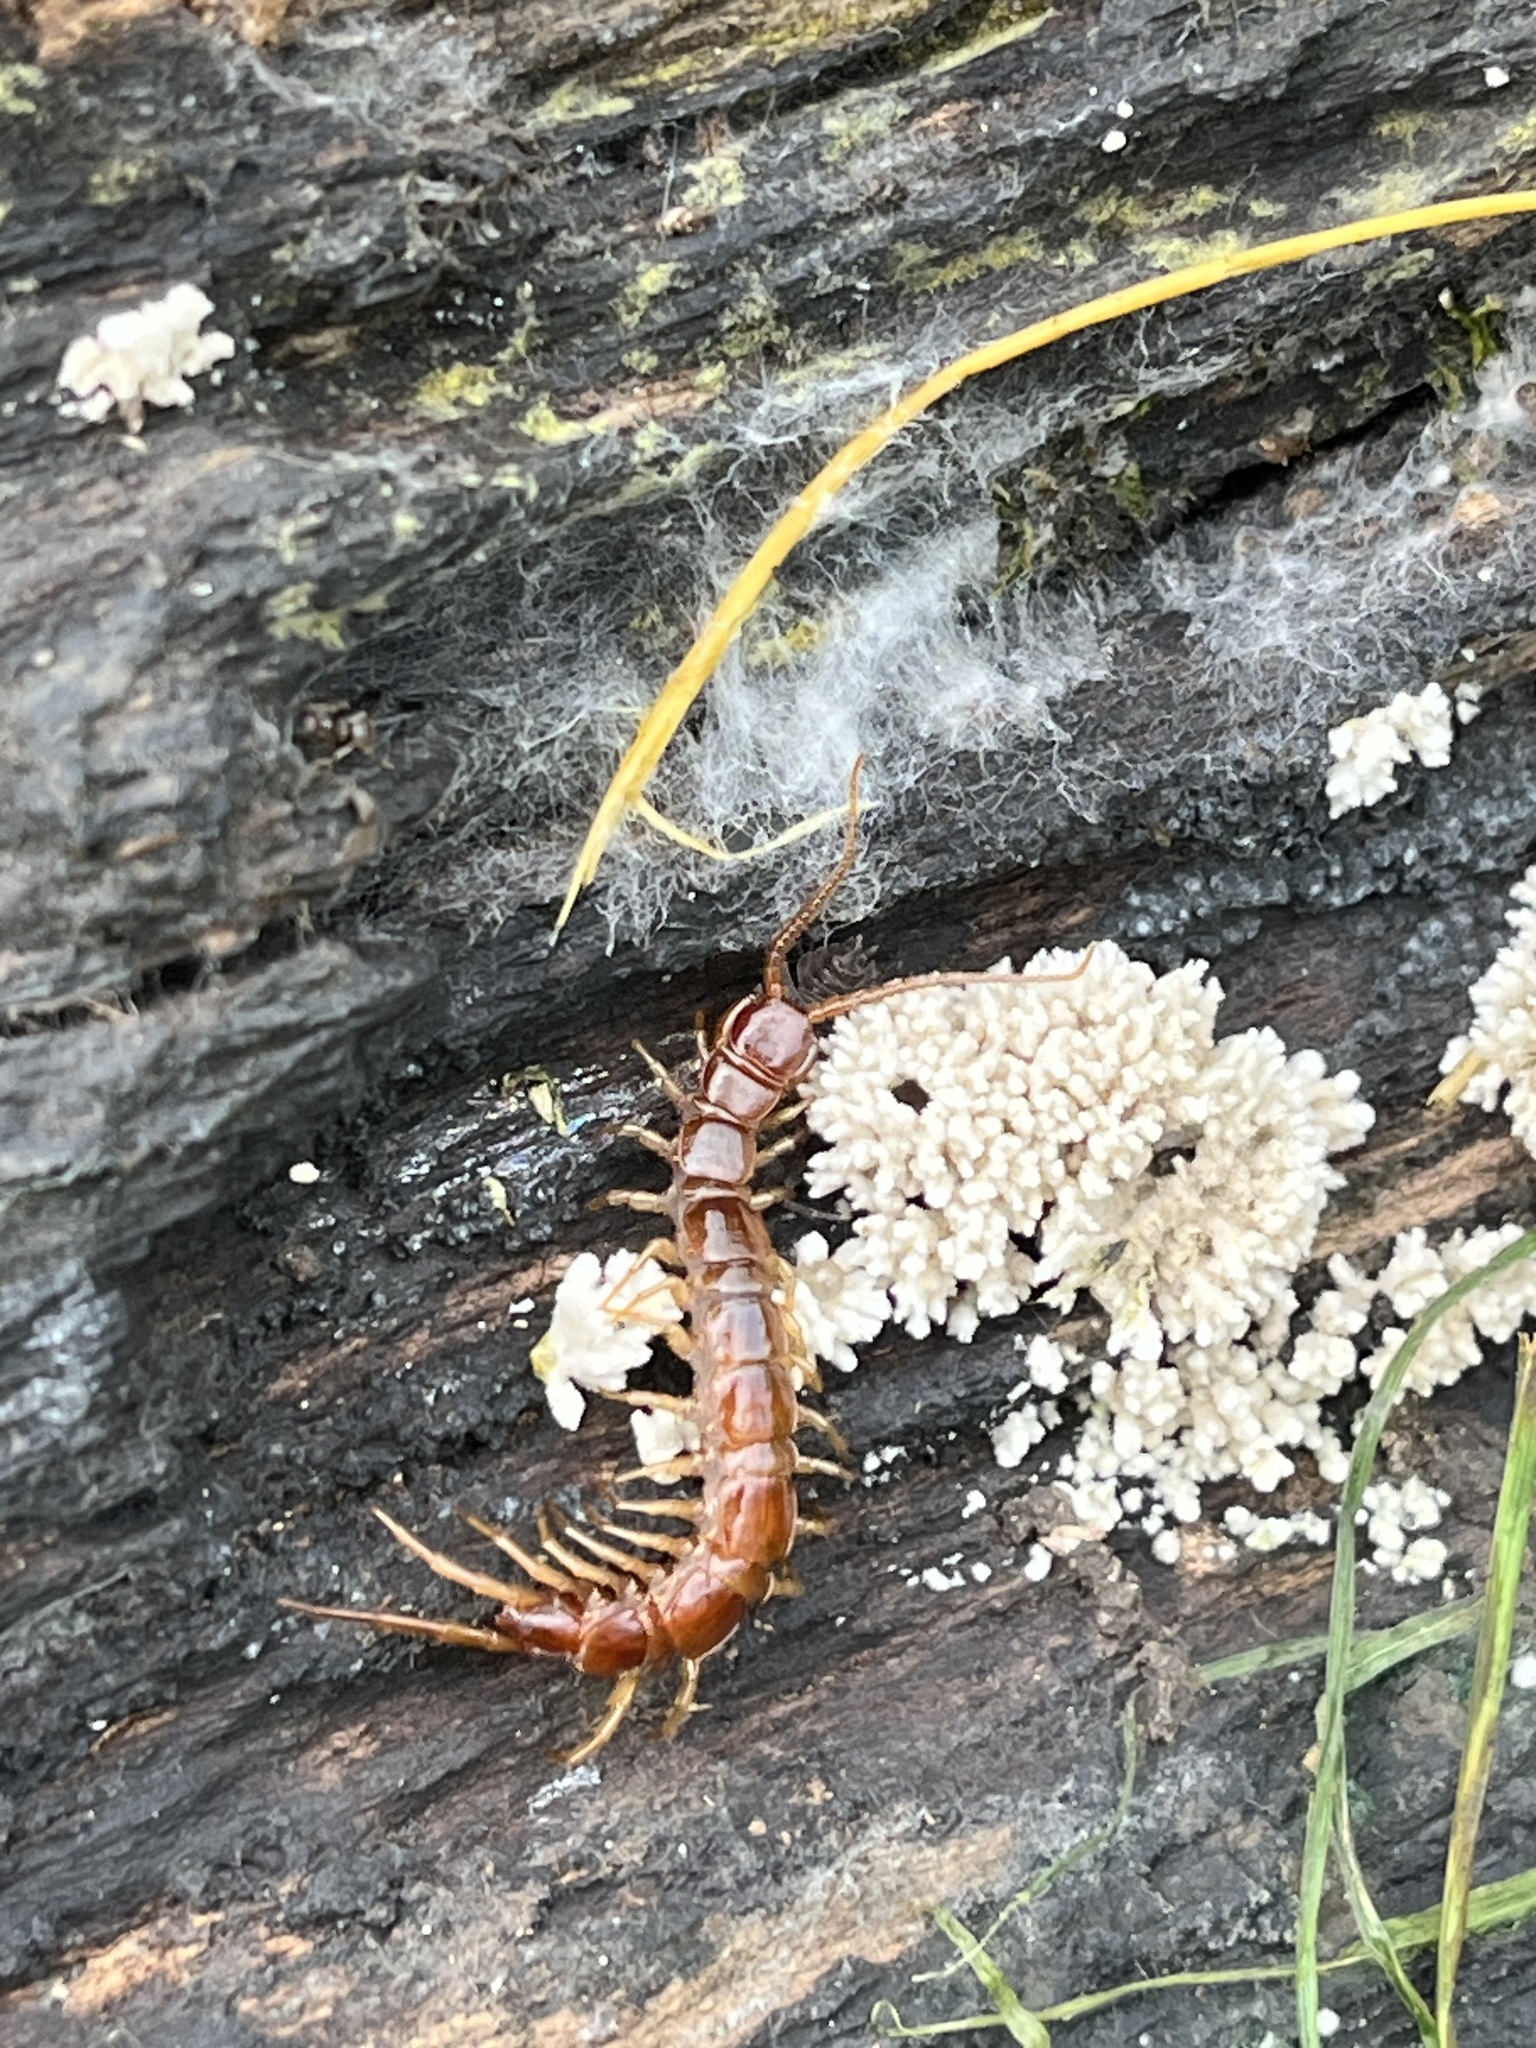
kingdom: Animalia
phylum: Arthropoda
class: Chilopoda
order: Lithobiomorpha
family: Lithobiidae
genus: Lithobius
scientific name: Lithobius forficatus
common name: Centipede
